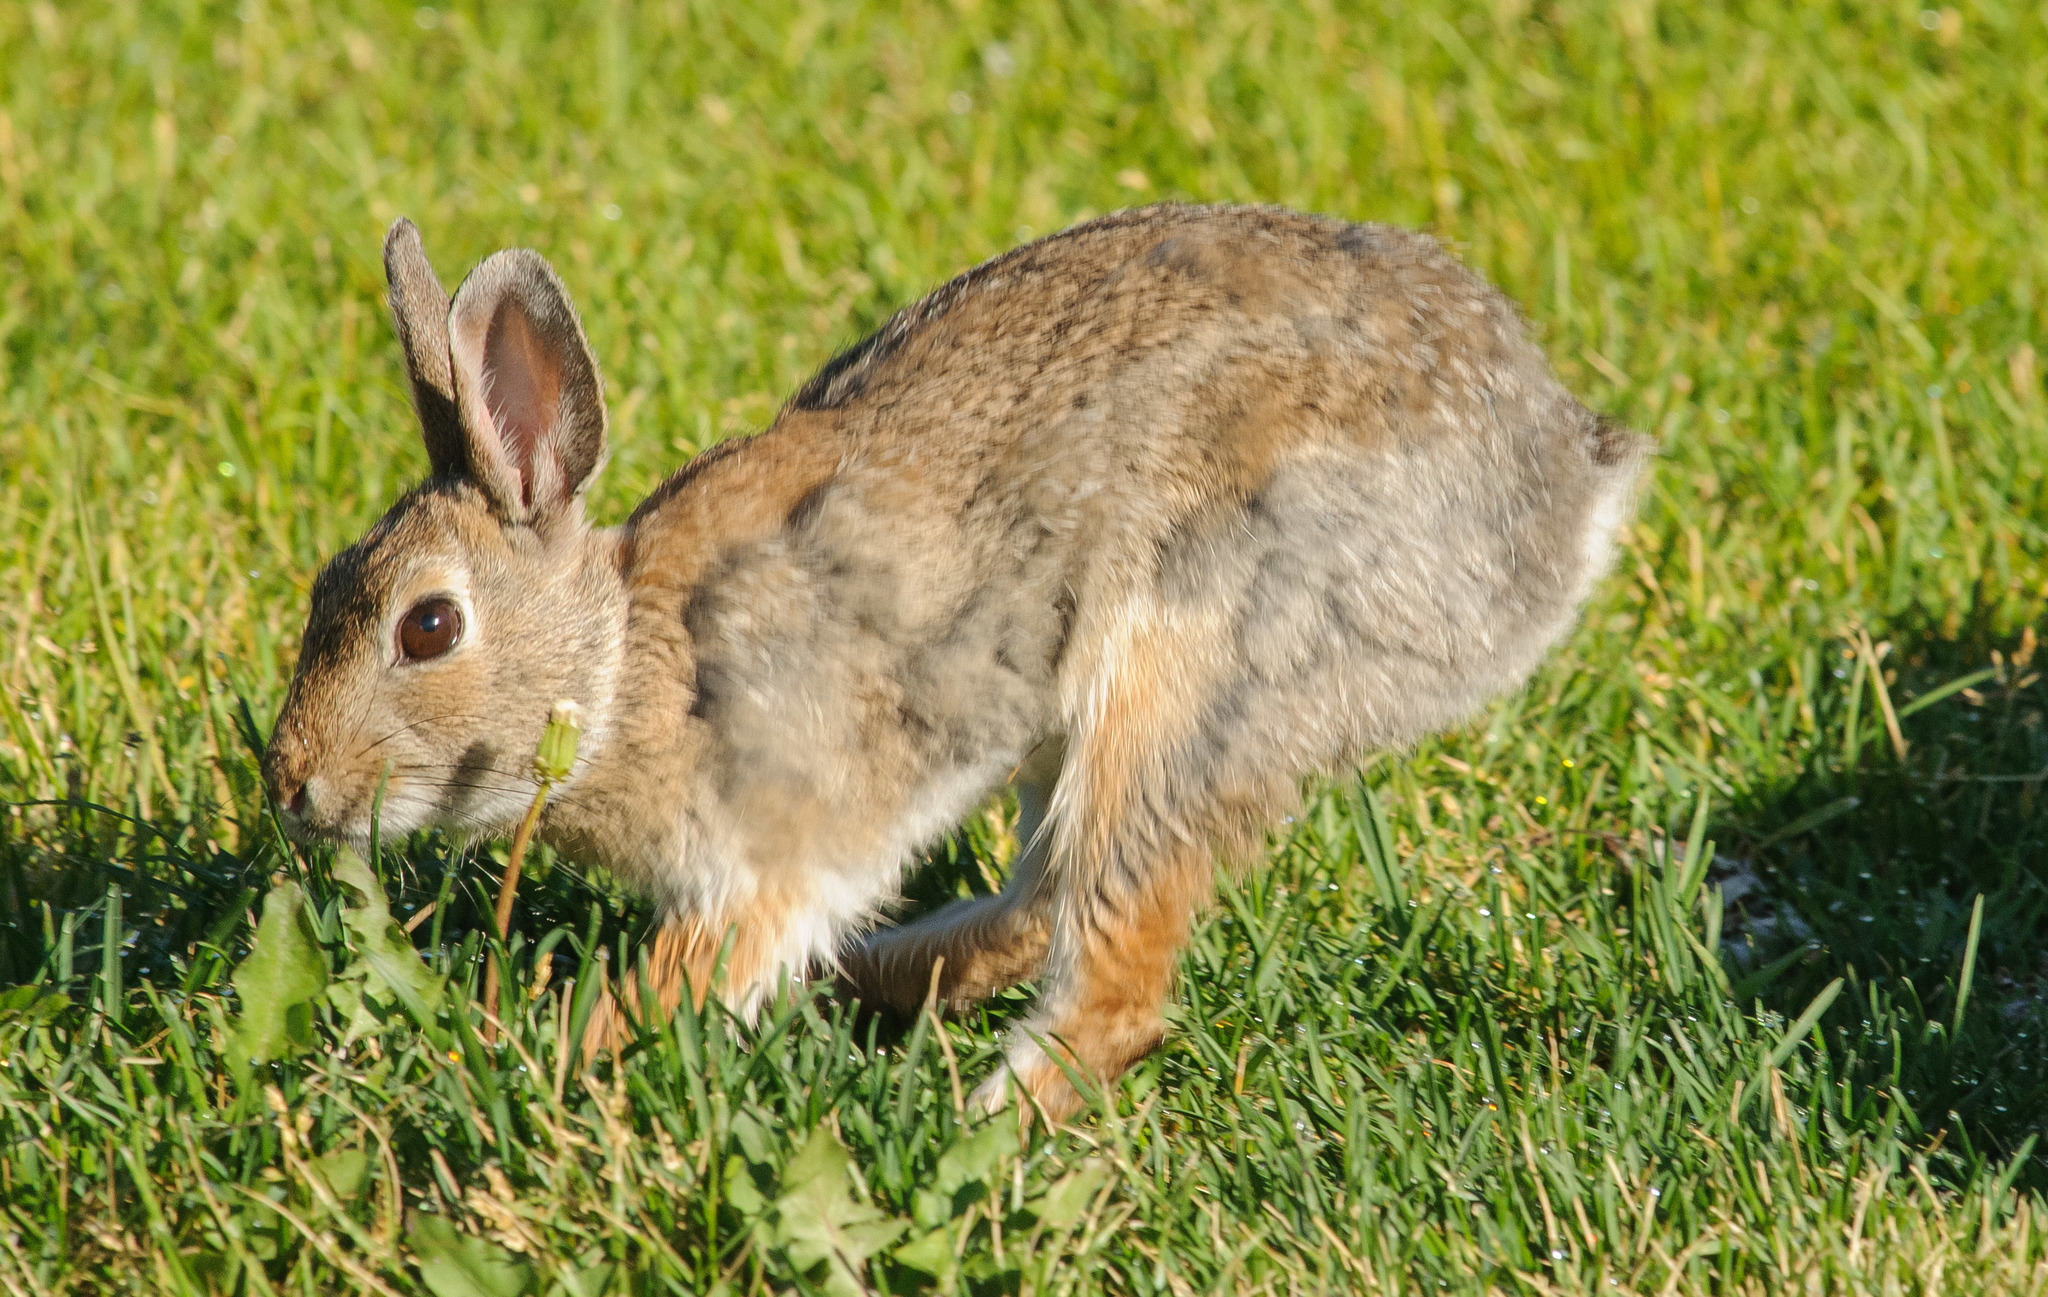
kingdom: Animalia
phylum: Chordata
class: Mammalia
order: Lagomorpha
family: Leporidae
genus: Sylvilagus
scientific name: Sylvilagus nuttallii
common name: Mountain cottontail
